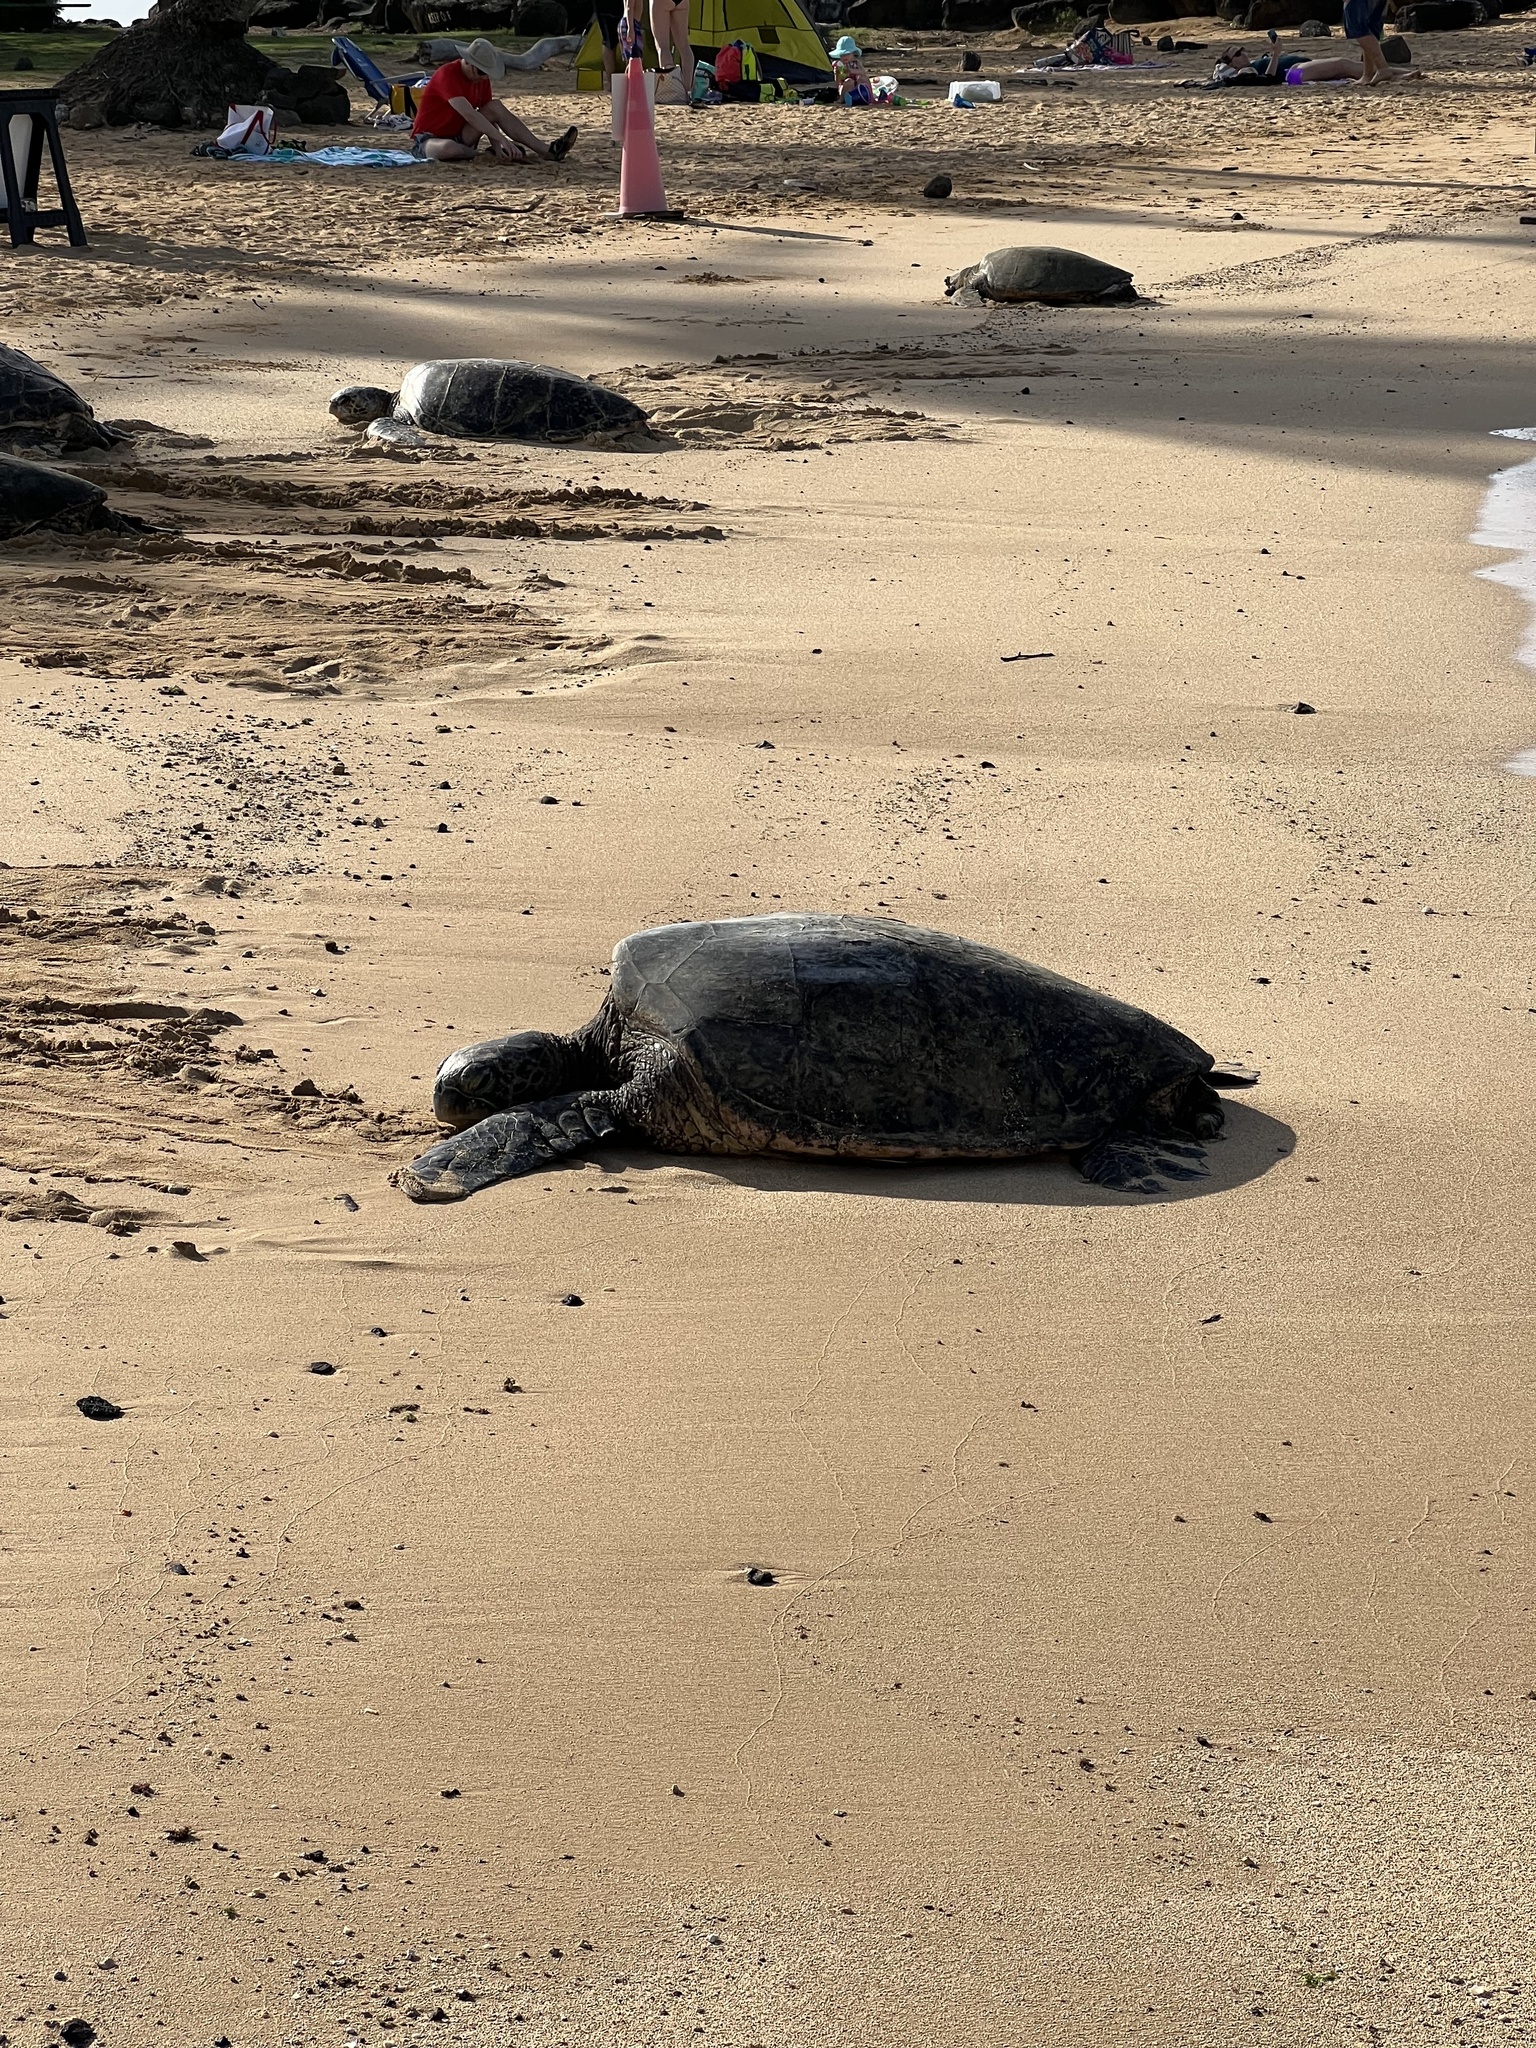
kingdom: Animalia
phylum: Chordata
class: Testudines
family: Cheloniidae
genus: Chelonia
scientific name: Chelonia mydas
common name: Green turtle
